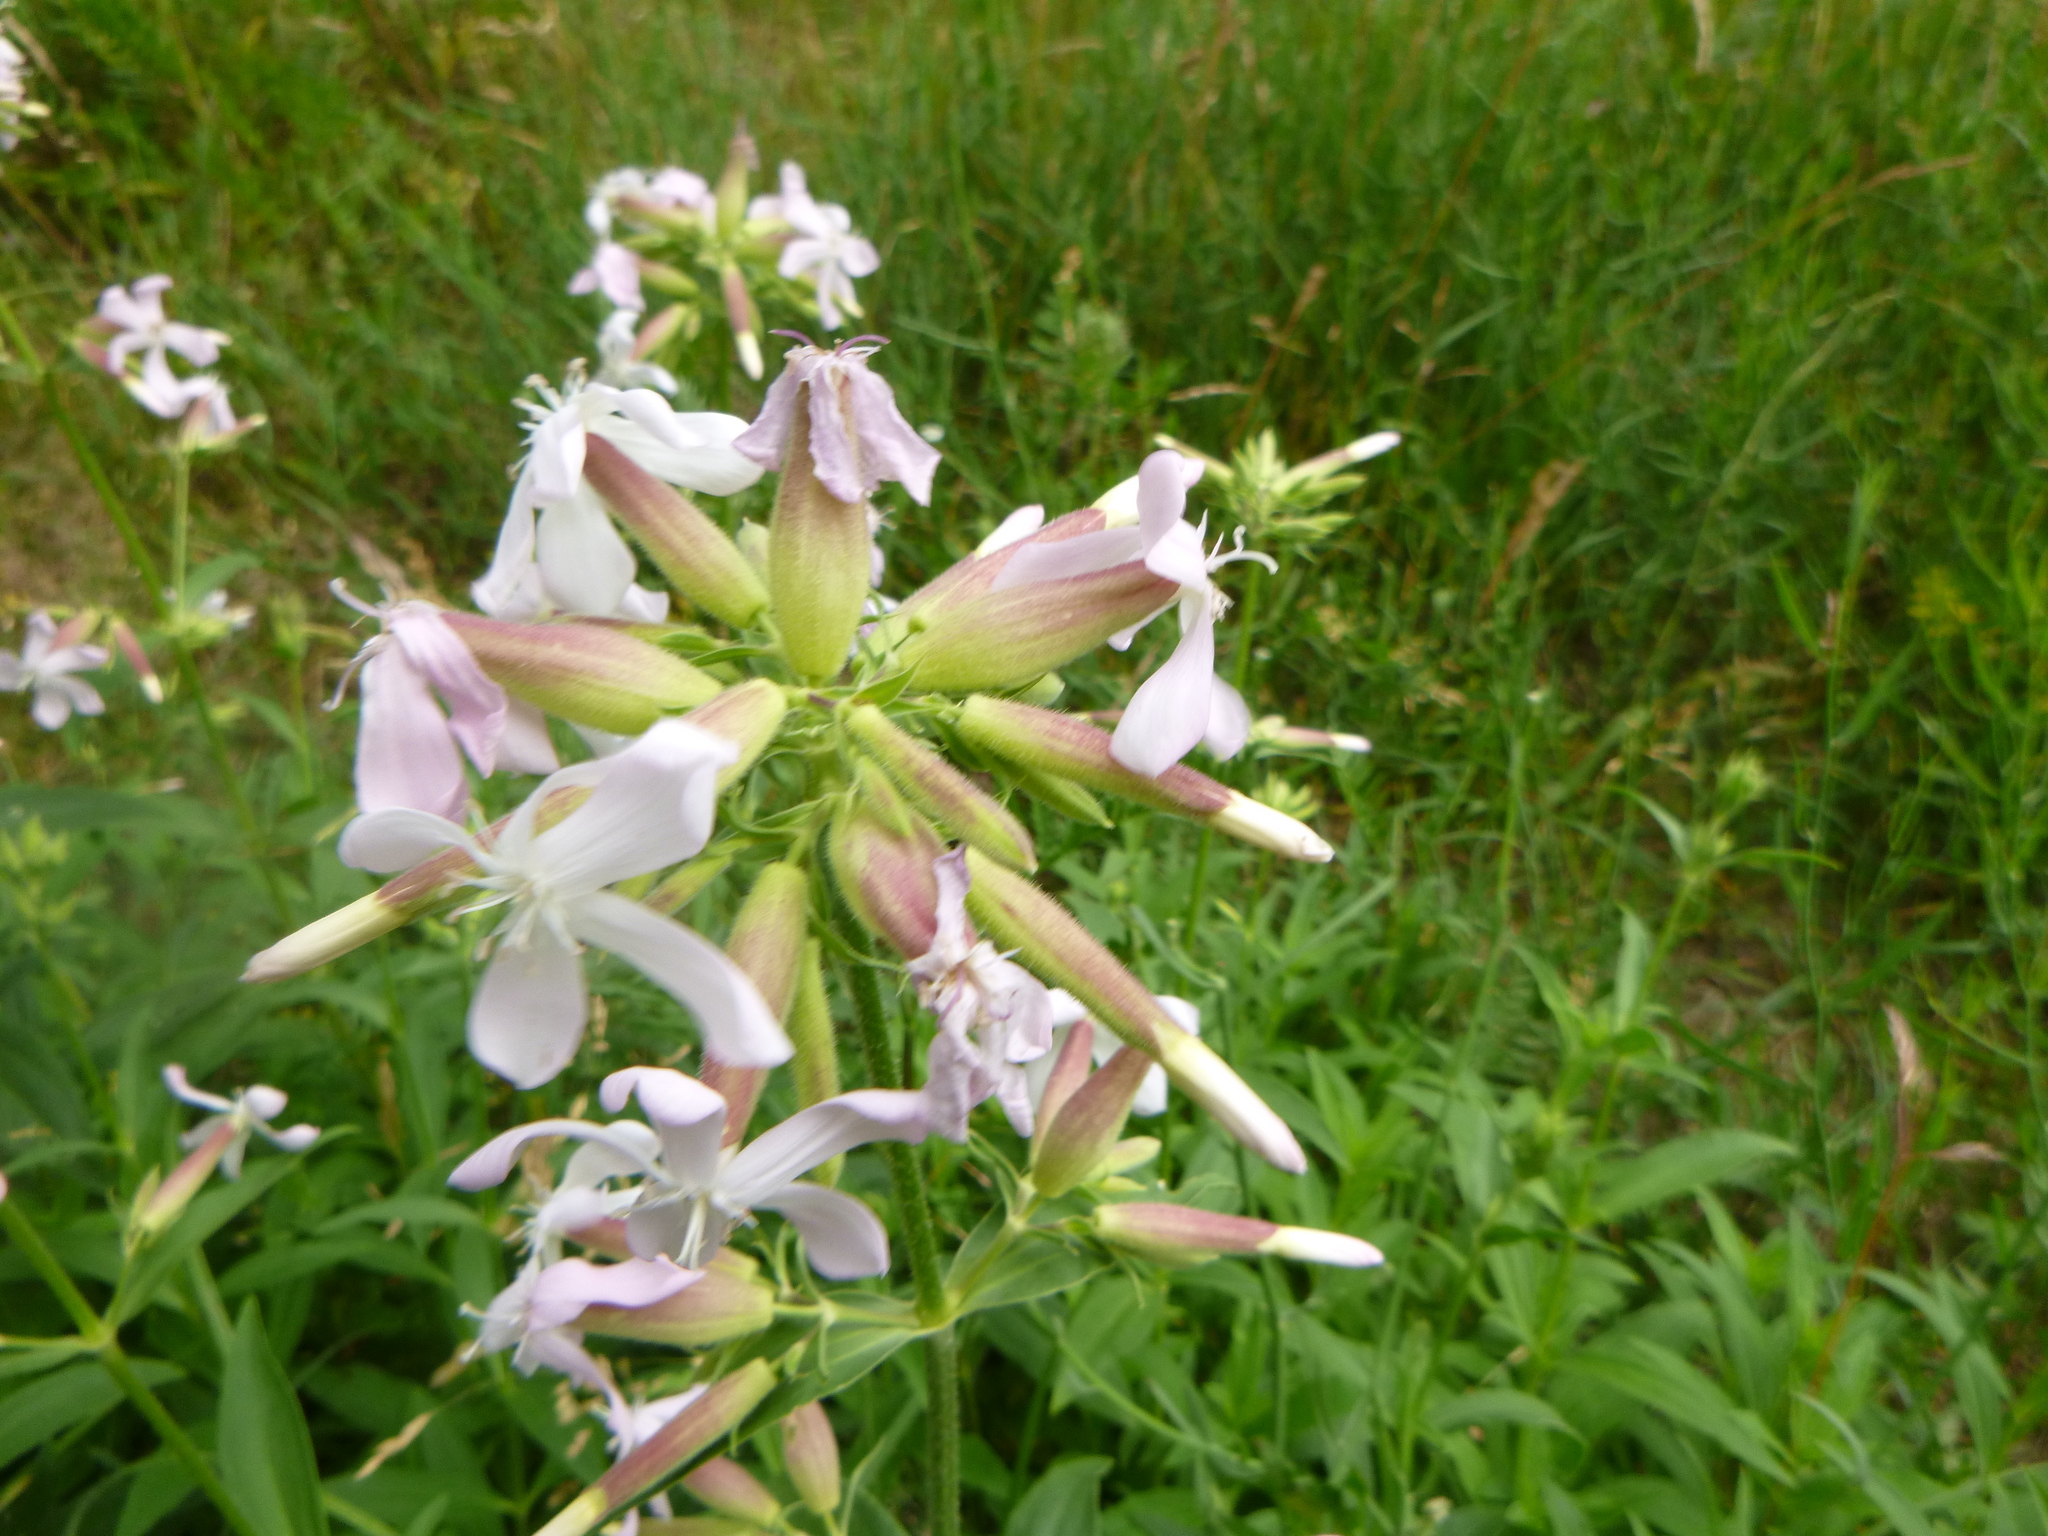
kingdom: Plantae
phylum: Tracheophyta
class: Magnoliopsida
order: Caryophyllales
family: Caryophyllaceae
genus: Saponaria
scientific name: Saponaria officinalis
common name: Soapwort
